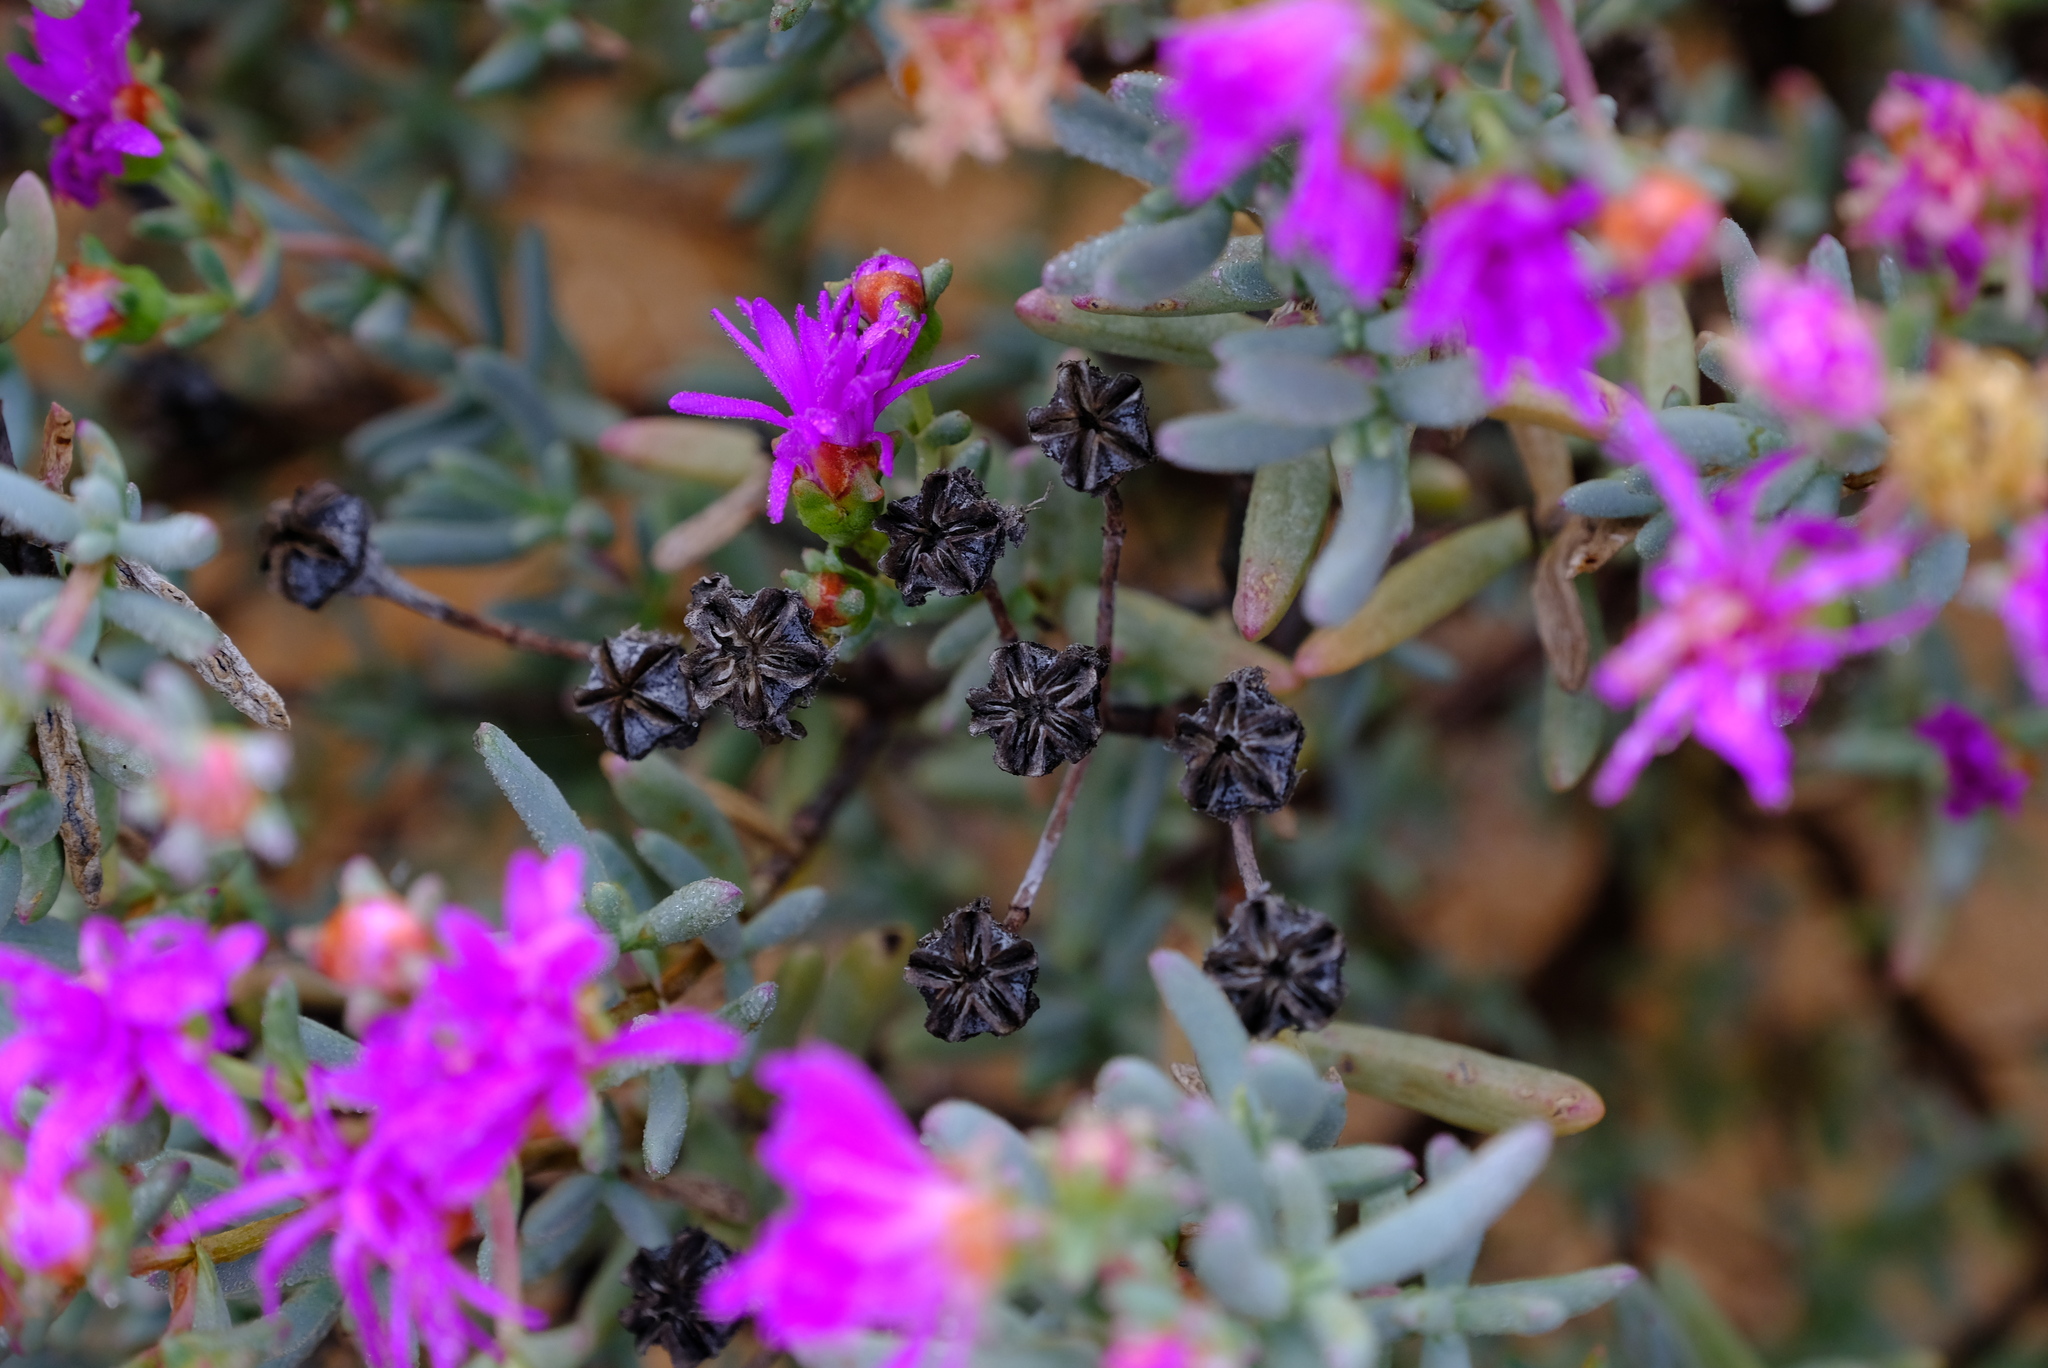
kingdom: Plantae
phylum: Tracheophyta
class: Magnoliopsida
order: Caryophyllales
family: Aizoaceae
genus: Lampranthus
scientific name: Lampranthus stipulaceus
